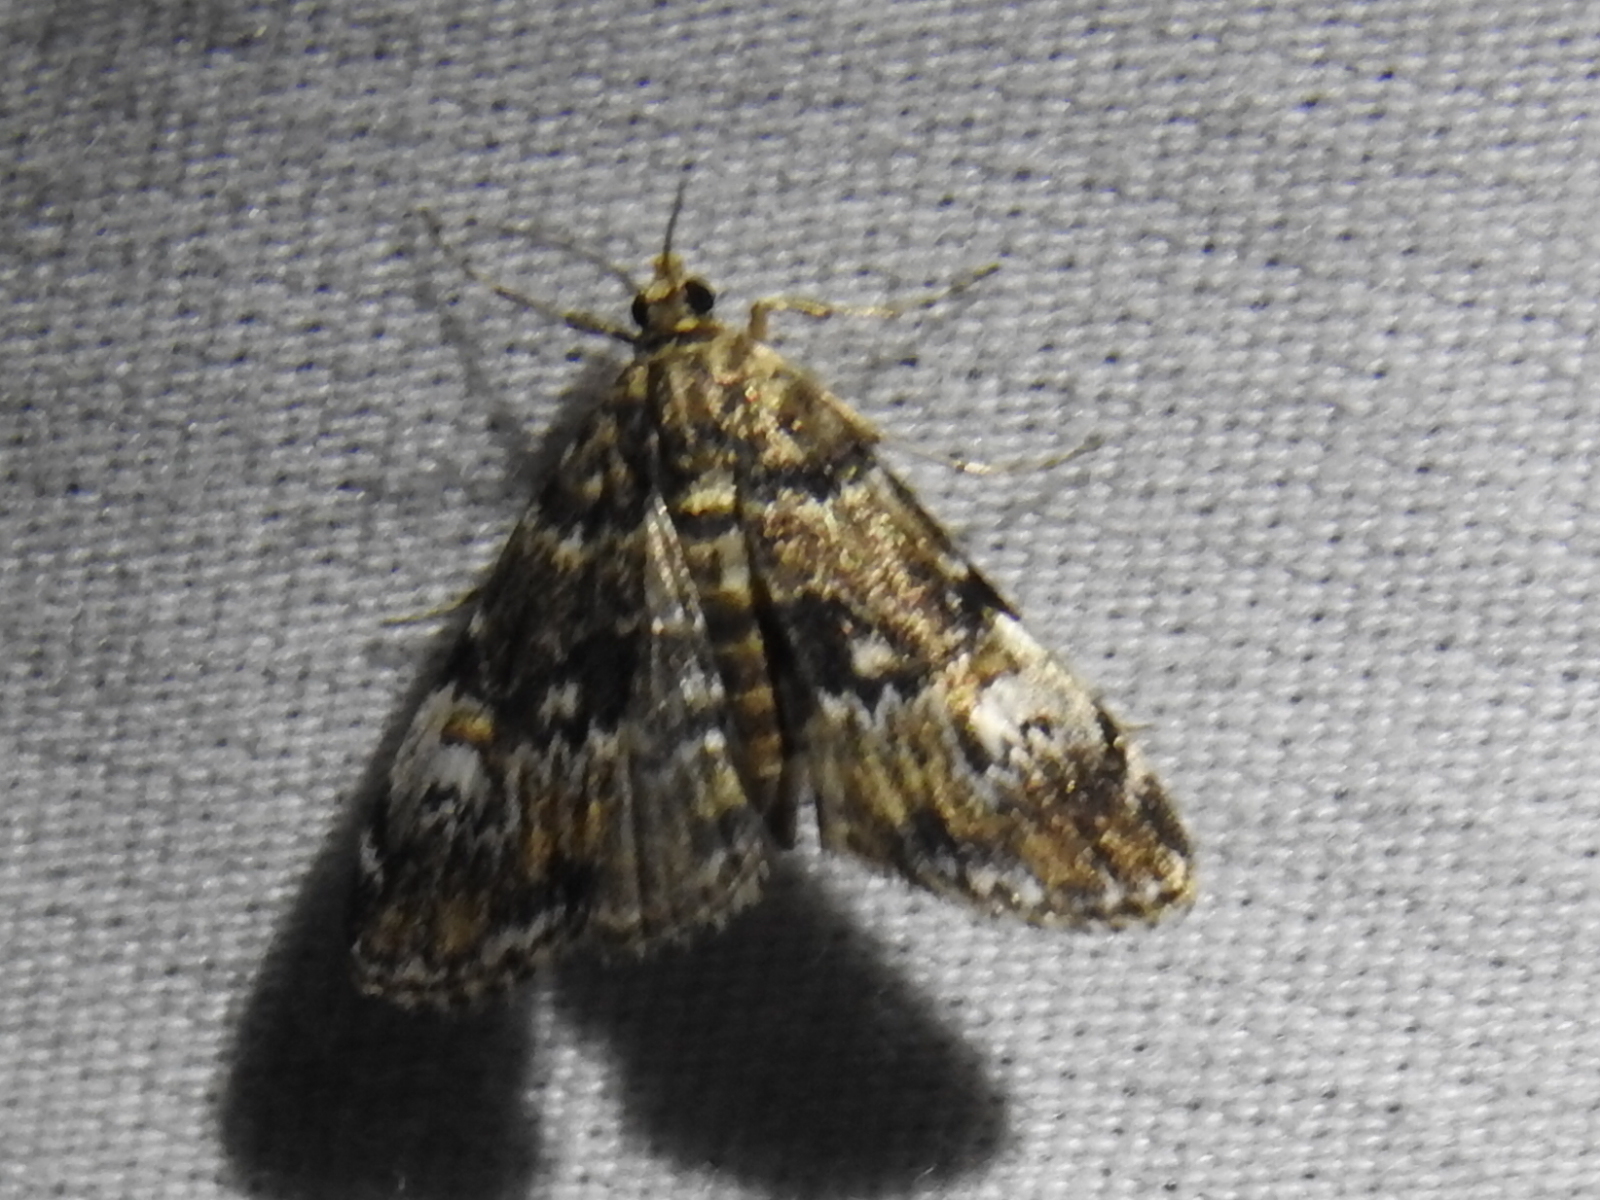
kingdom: Animalia
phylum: Arthropoda
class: Insecta
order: Lepidoptera
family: Crambidae
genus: Elophila
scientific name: Elophila obliteralis
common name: Waterlily leafcutter moth
